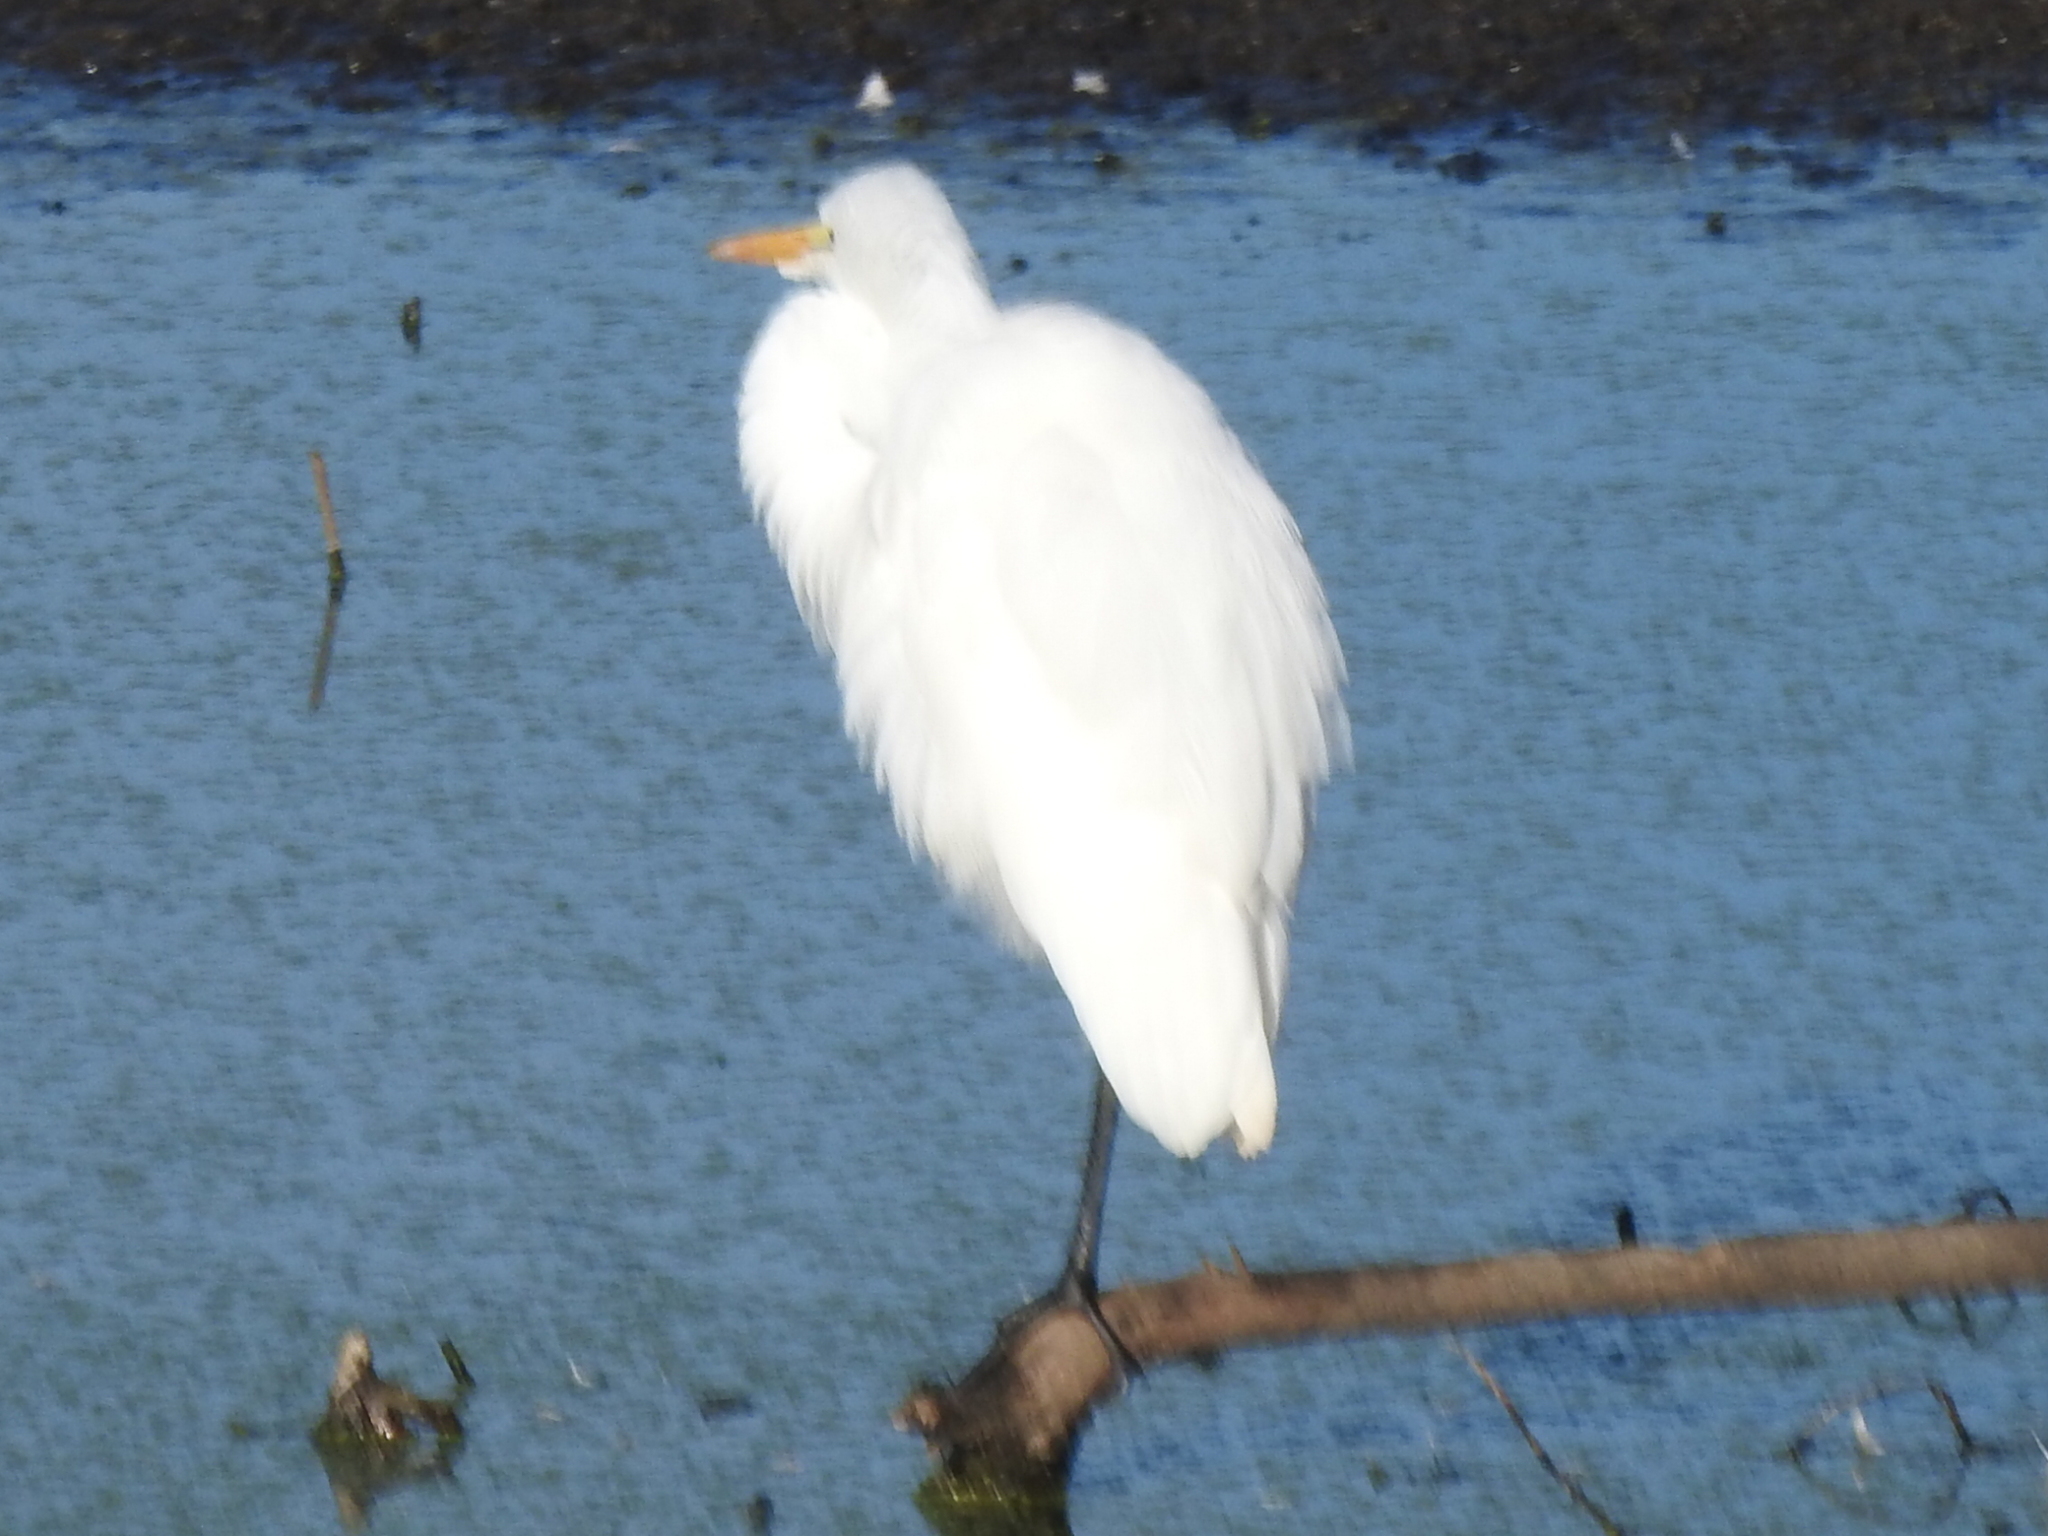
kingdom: Animalia
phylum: Chordata
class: Aves
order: Pelecaniformes
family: Ardeidae
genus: Ardea
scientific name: Ardea alba
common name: Great egret
